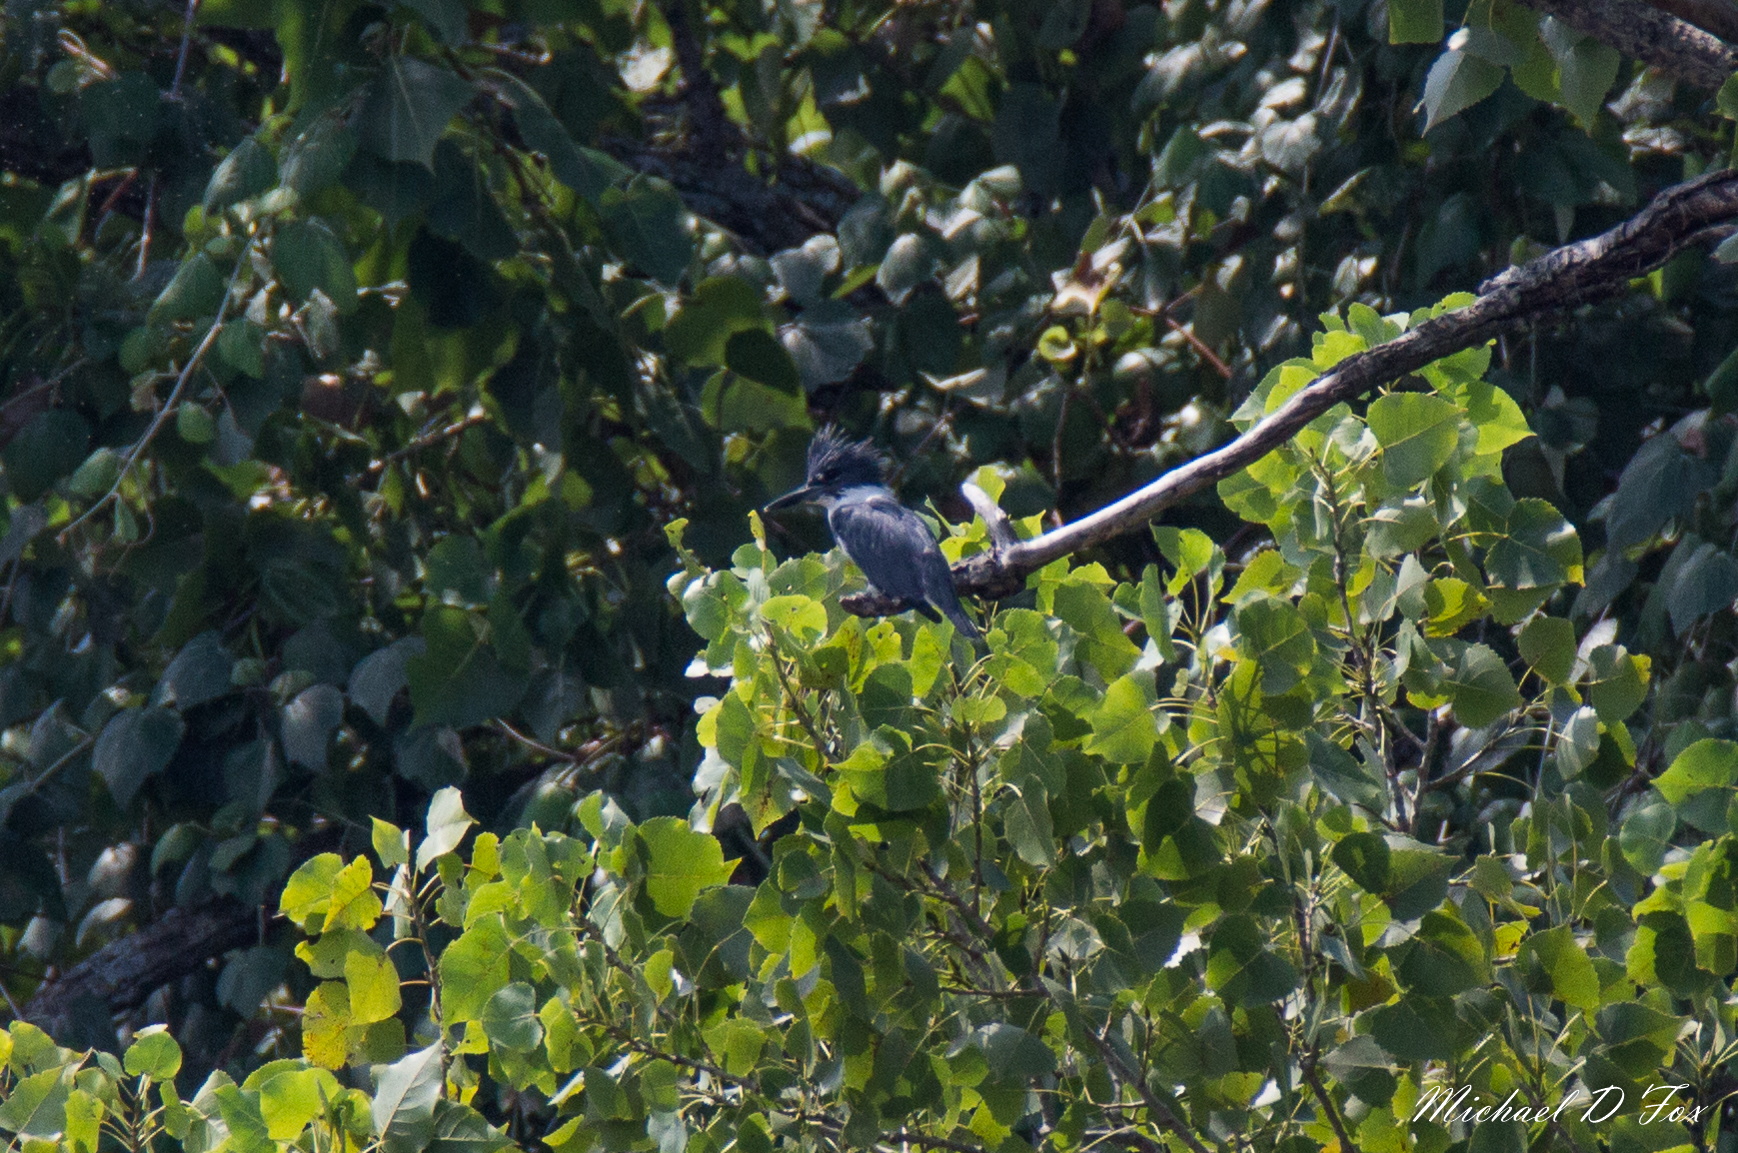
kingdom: Animalia
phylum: Chordata
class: Aves
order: Coraciiformes
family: Alcedinidae
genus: Megaceryle
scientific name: Megaceryle alcyon
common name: Belted kingfisher
